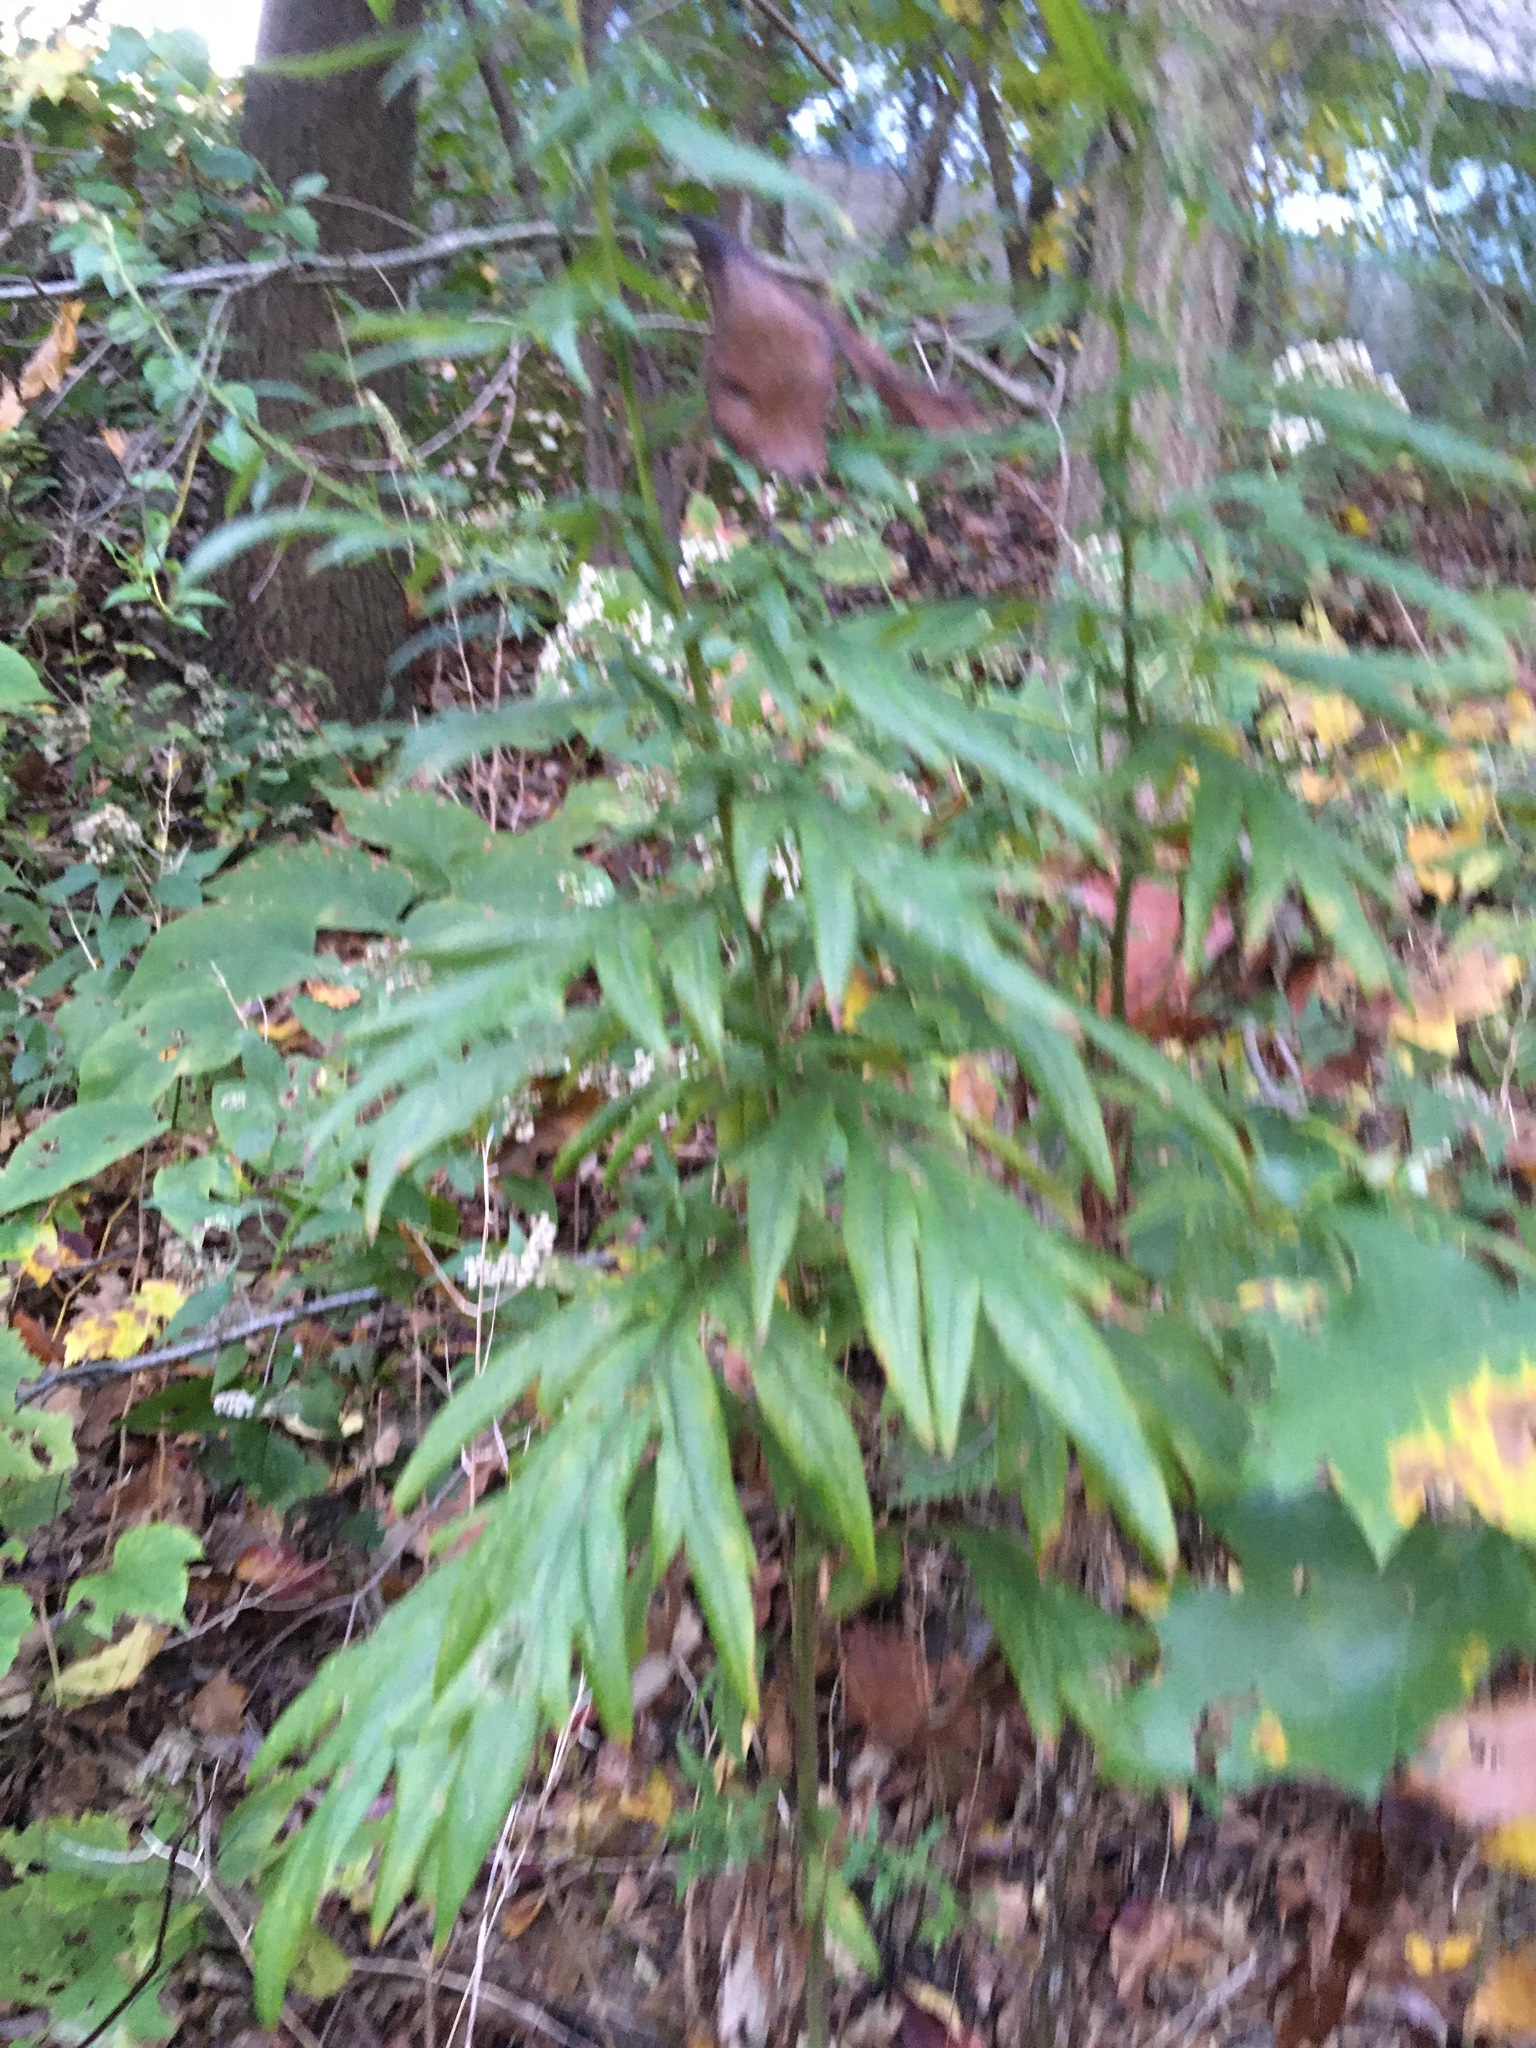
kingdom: Plantae
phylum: Tracheophyta
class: Magnoliopsida
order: Asterales
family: Asteraceae
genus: Artemisia
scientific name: Artemisia vulgaris
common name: Mugwort
